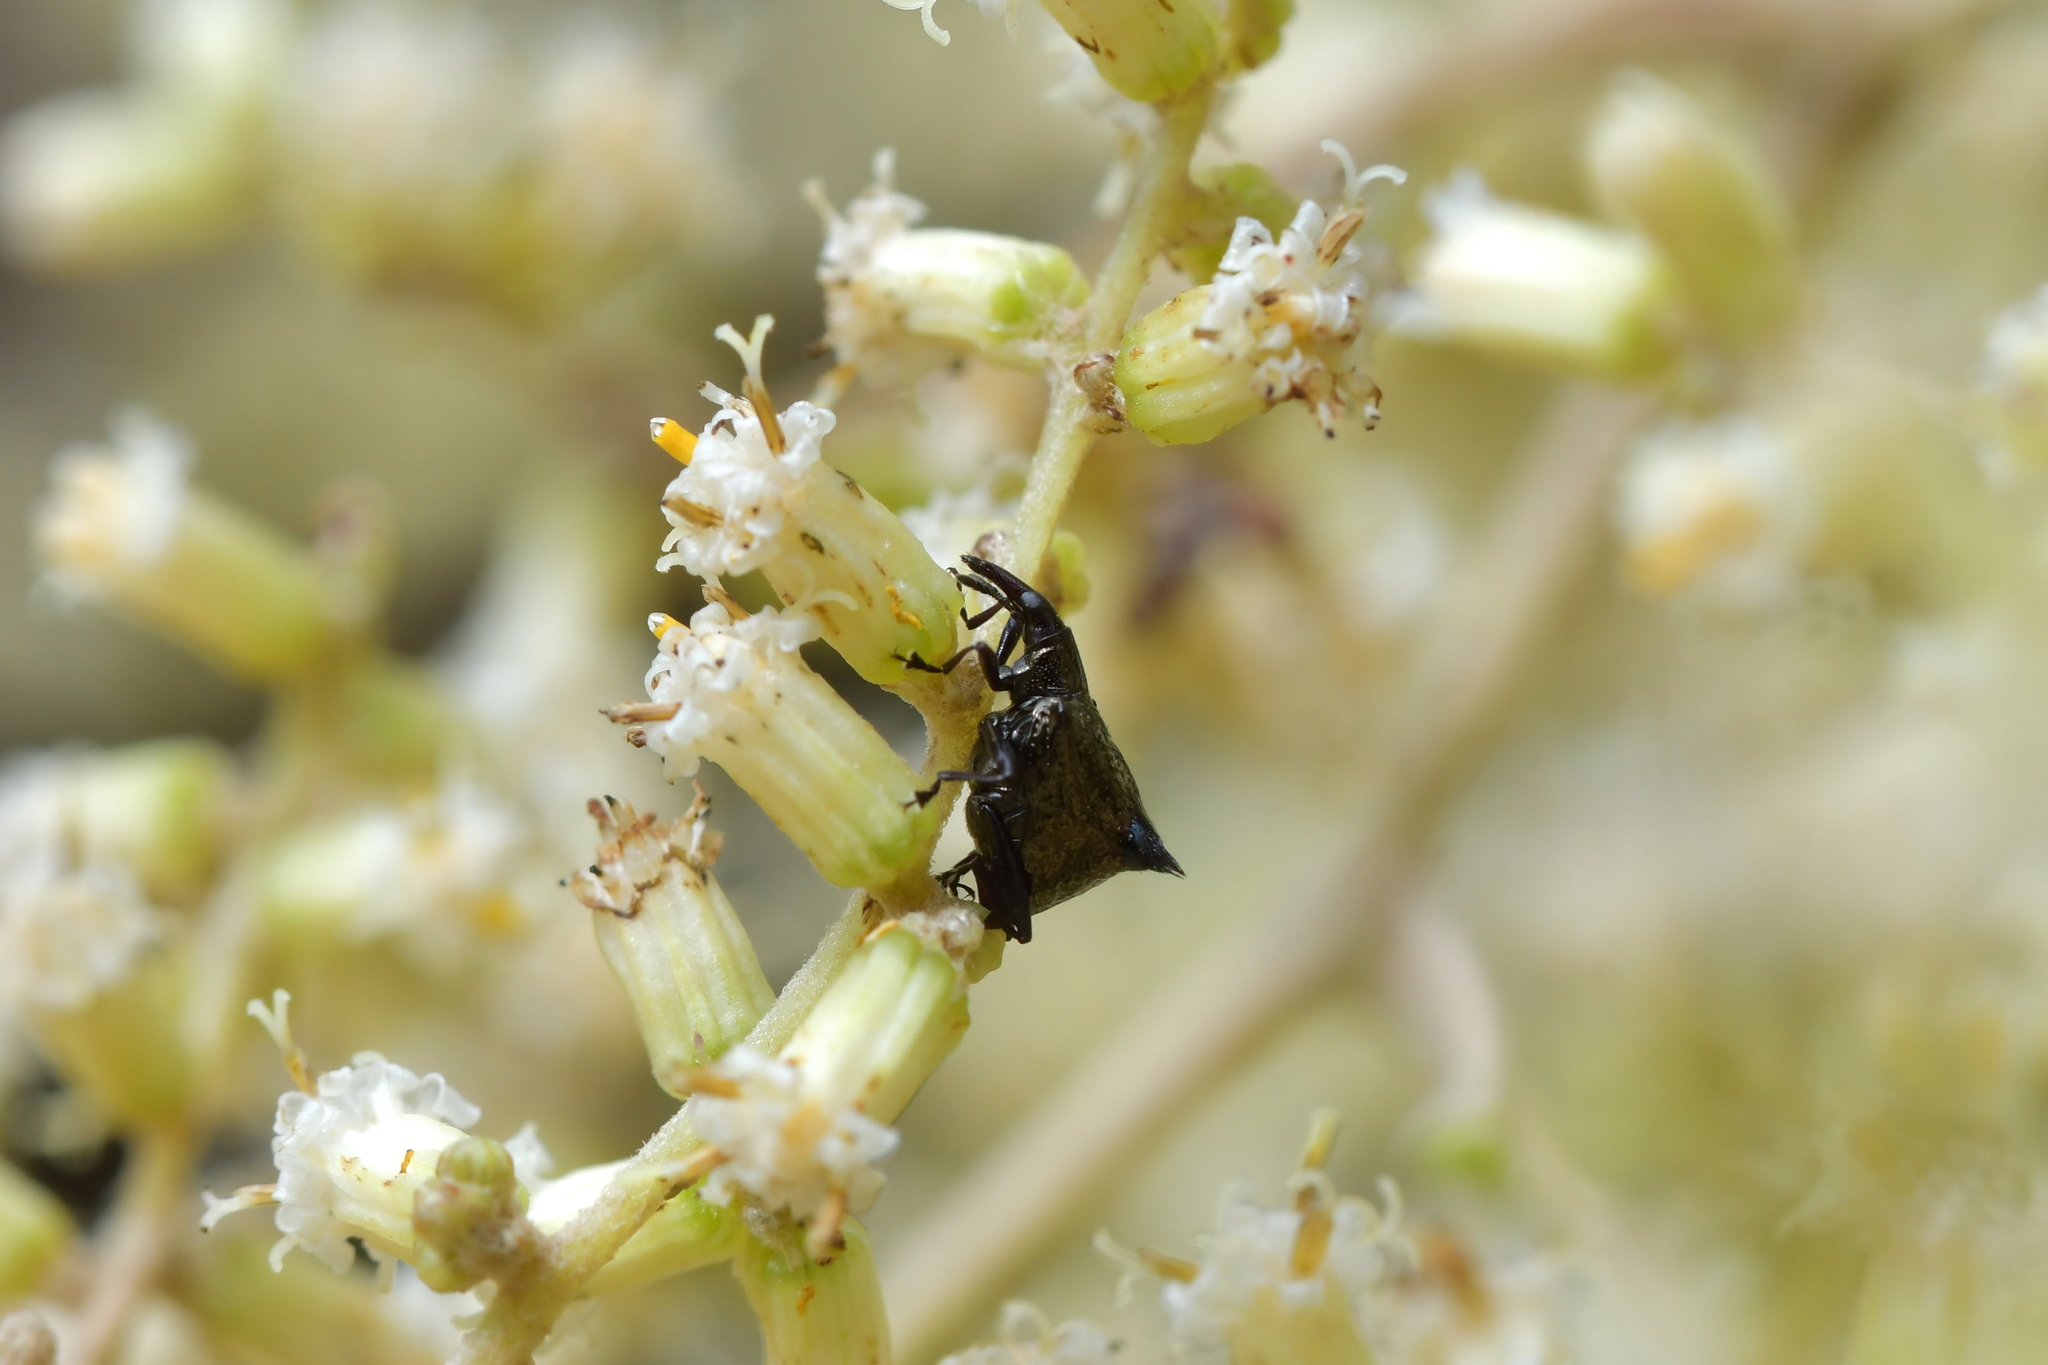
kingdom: Animalia
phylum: Arthropoda
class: Insecta
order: Coleoptera
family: Curculionidae
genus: Scolopterus
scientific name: Scolopterus penicillatus
